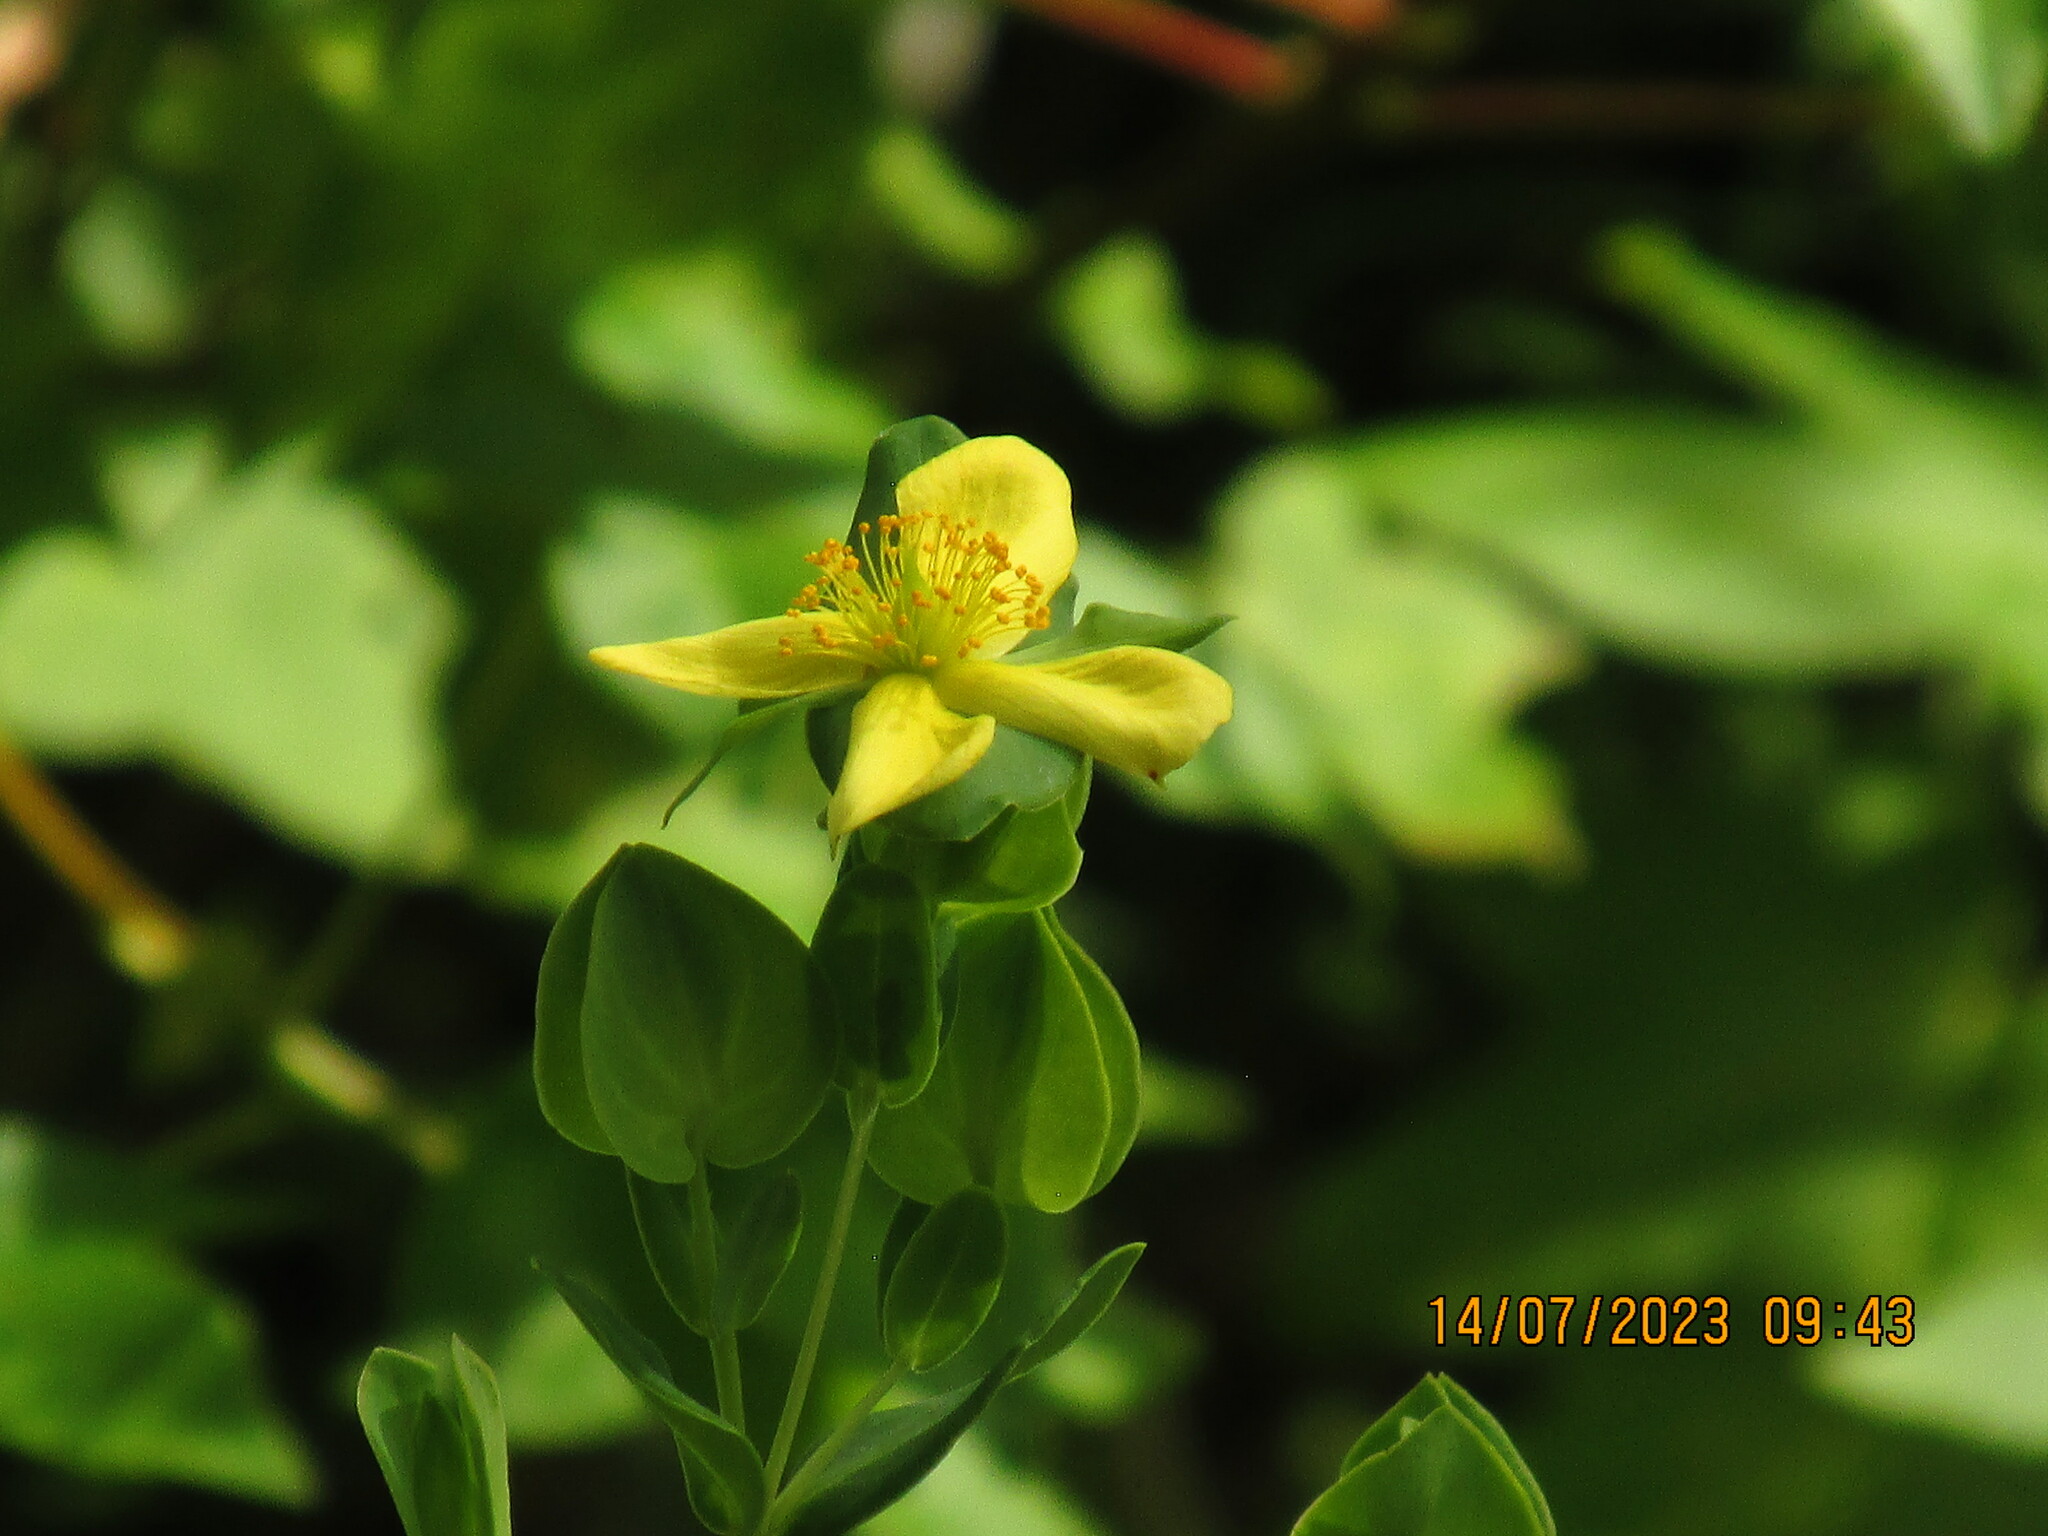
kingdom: Plantae
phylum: Tracheophyta
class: Magnoliopsida
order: Malpighiales
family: Hypericaceae
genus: Hypericum
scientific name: Hypericum crux-andreae
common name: St.-peter's-wort
